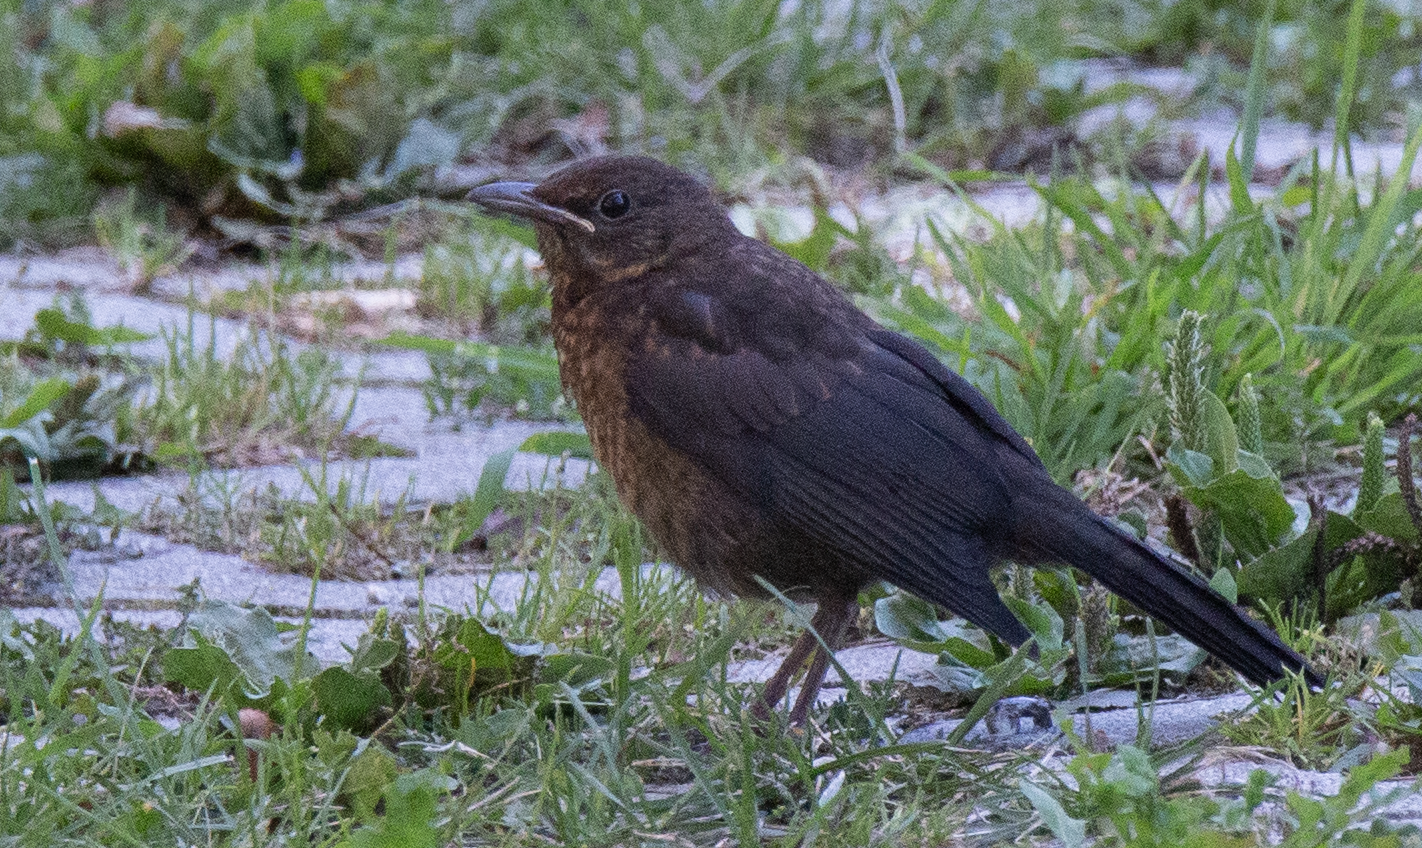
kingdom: Animalia
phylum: Chordata
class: Aves
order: Passeriformes
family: Turdidae
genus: Turdus
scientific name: Turdus merula
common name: Common blackbird
